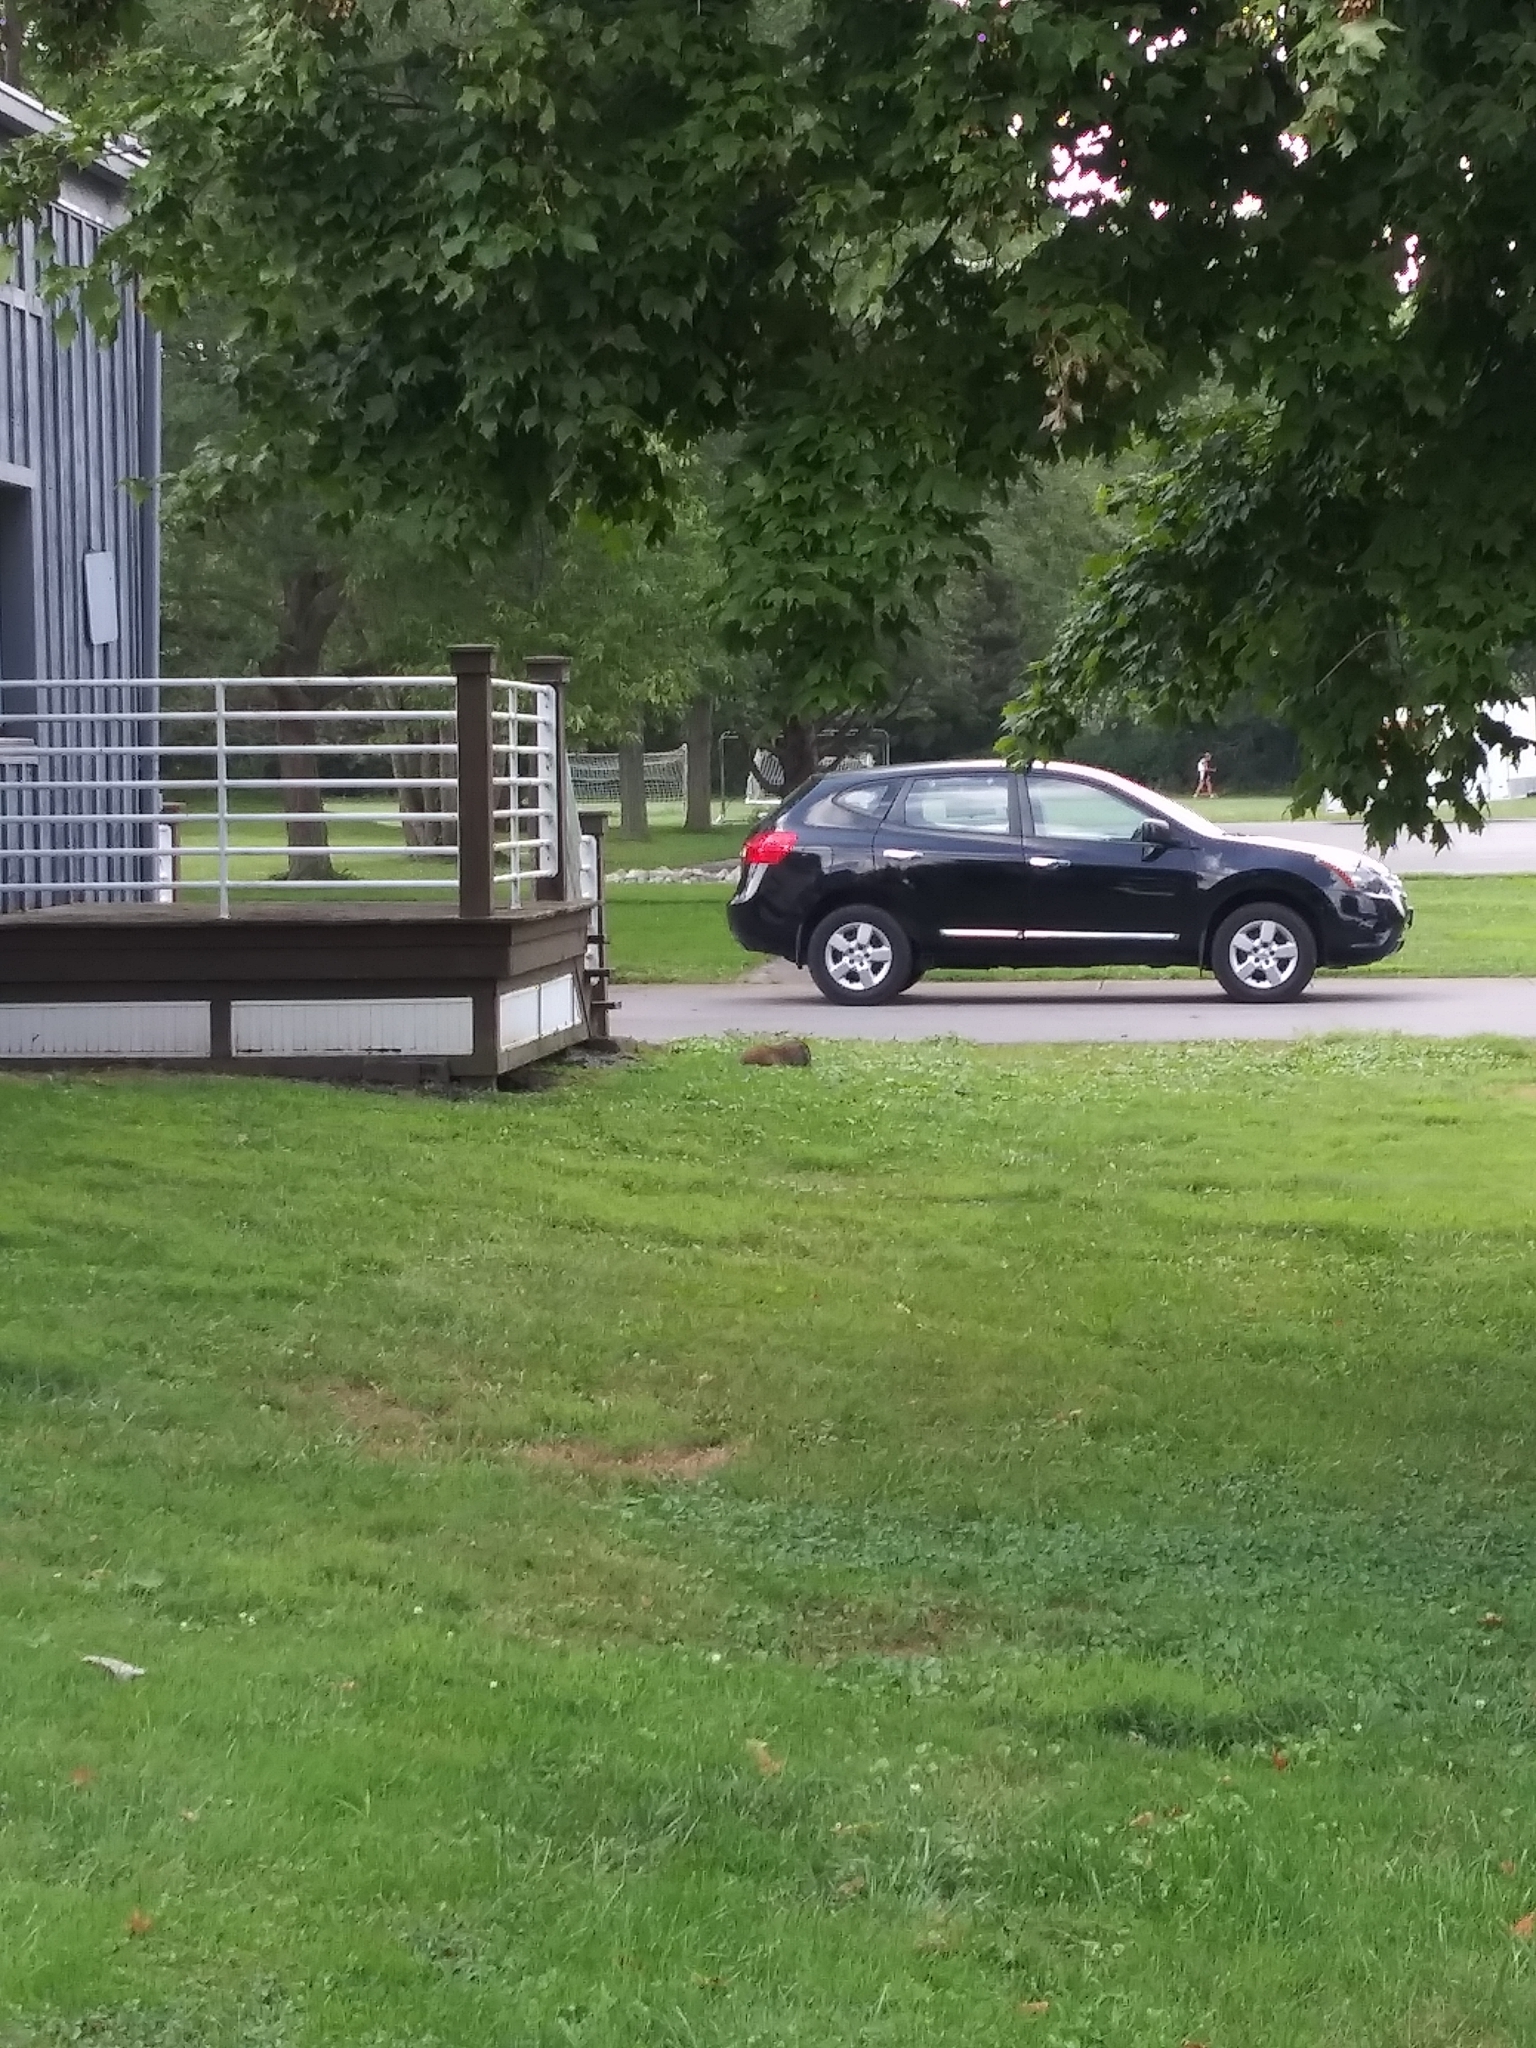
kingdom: Animalia
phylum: Chordata
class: Mammalia
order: Rodentia
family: Sciuridae
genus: Marmota
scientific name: Marmota monax
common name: Groundhog
